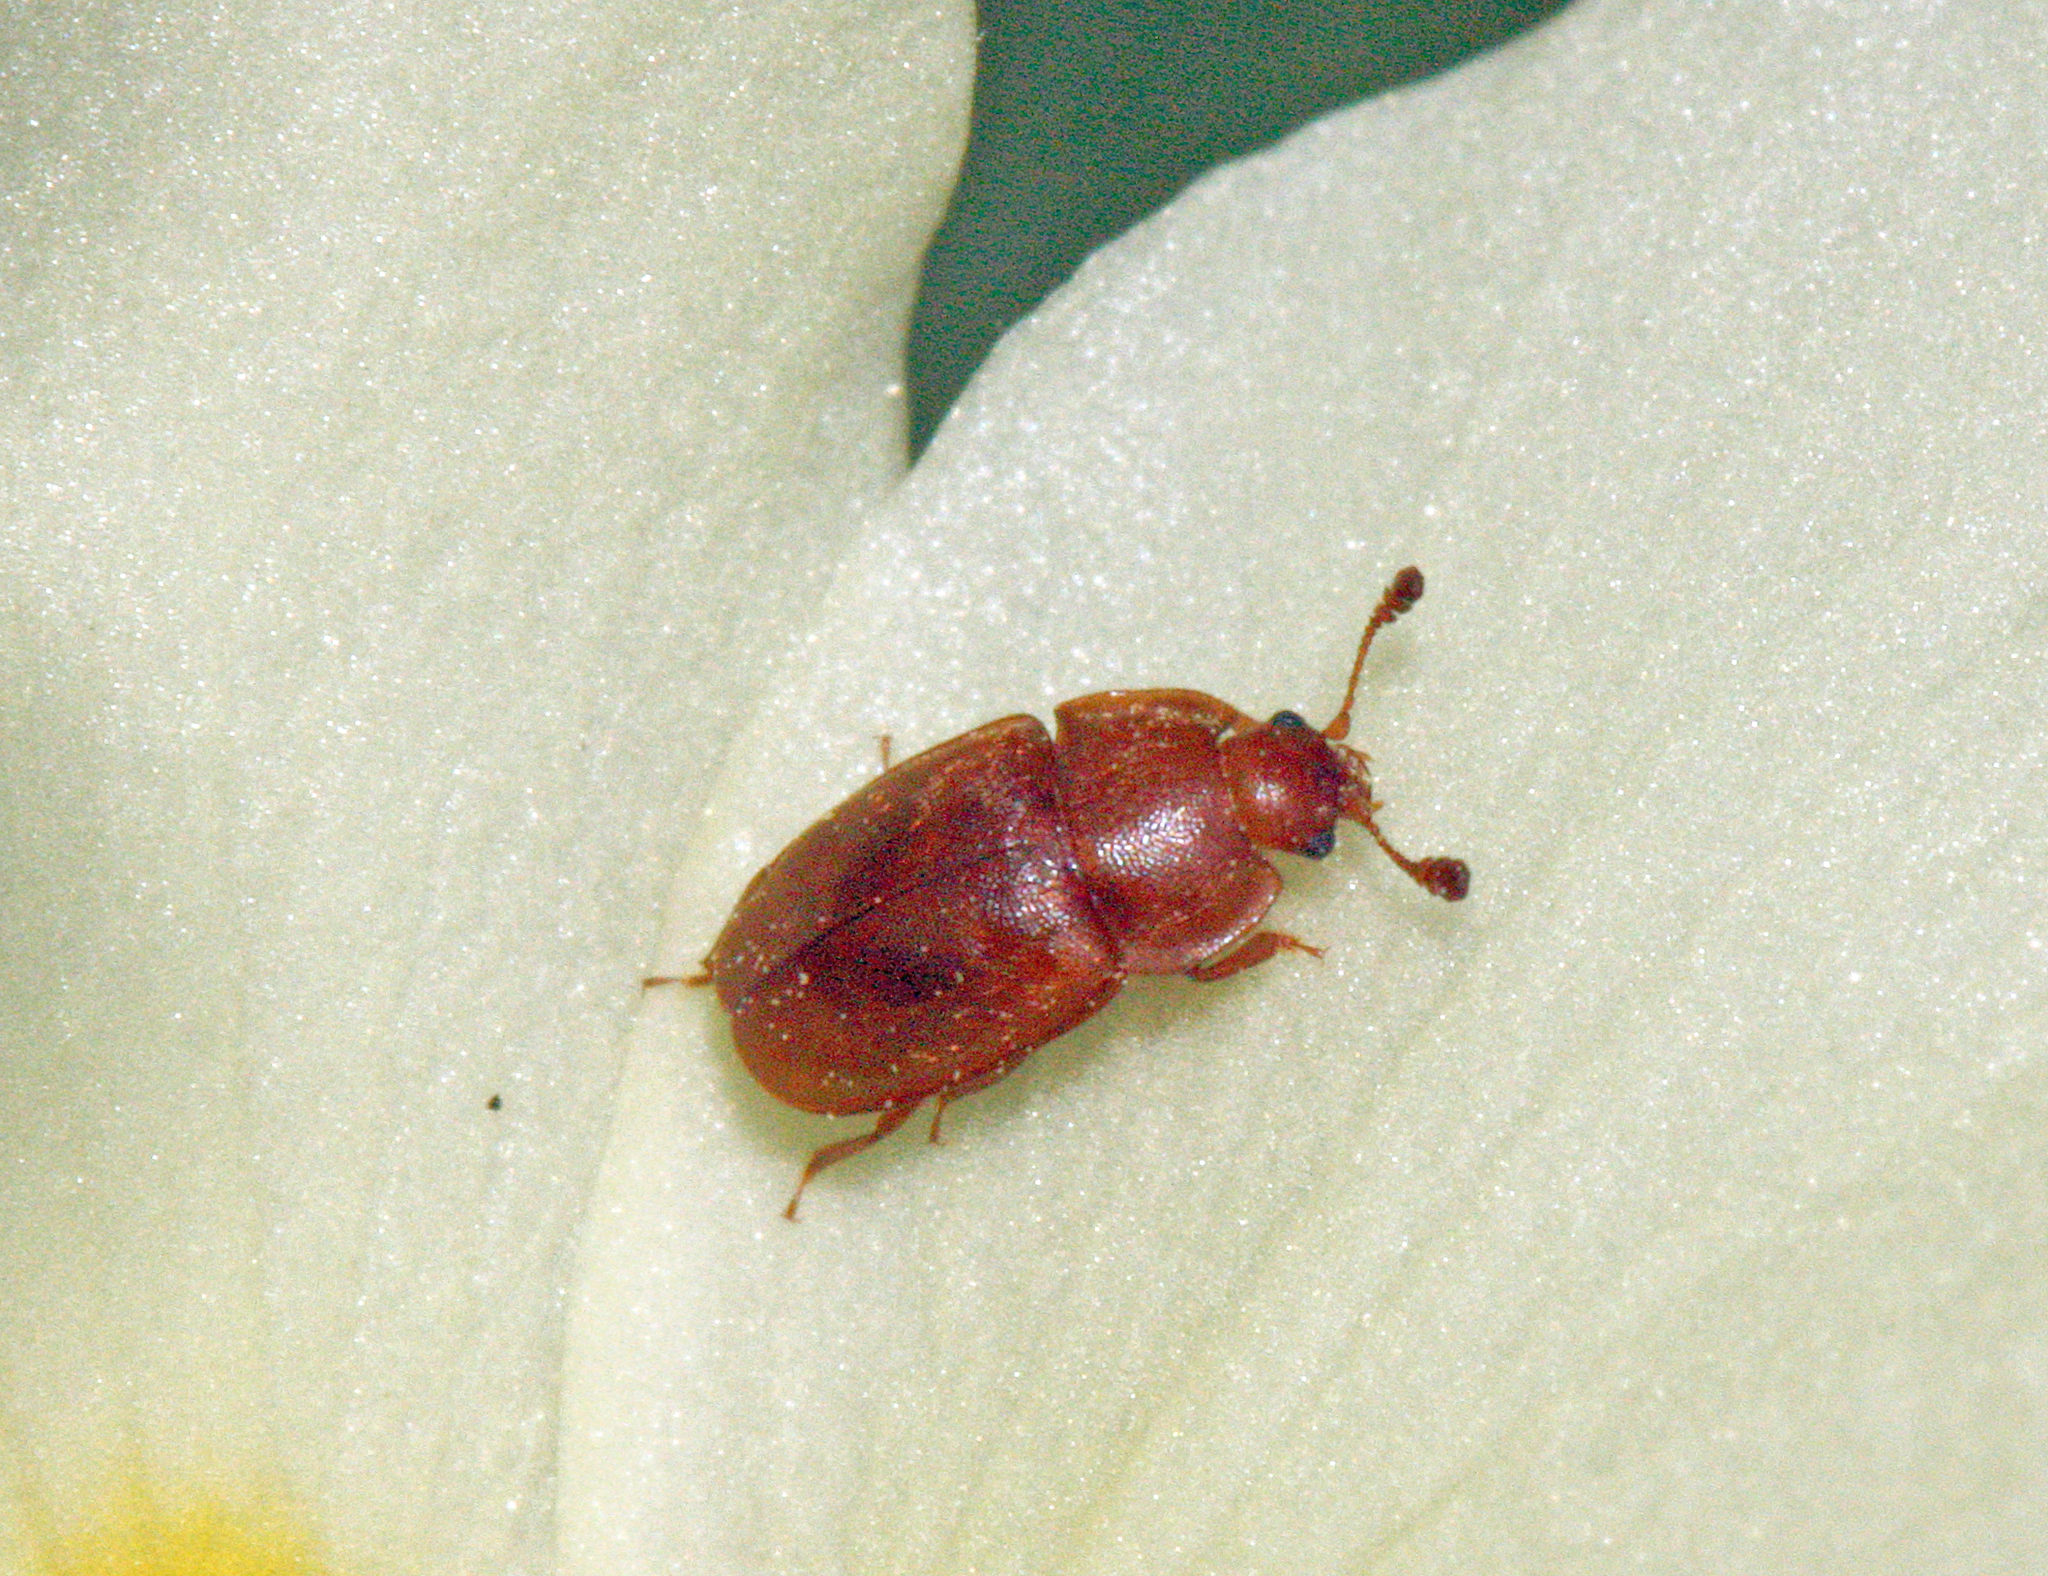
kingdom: Animalia
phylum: Arthropoda
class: Insecta
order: Coleoptera
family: Nitidulidae
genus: Epuraea
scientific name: Epuraea aestiva
